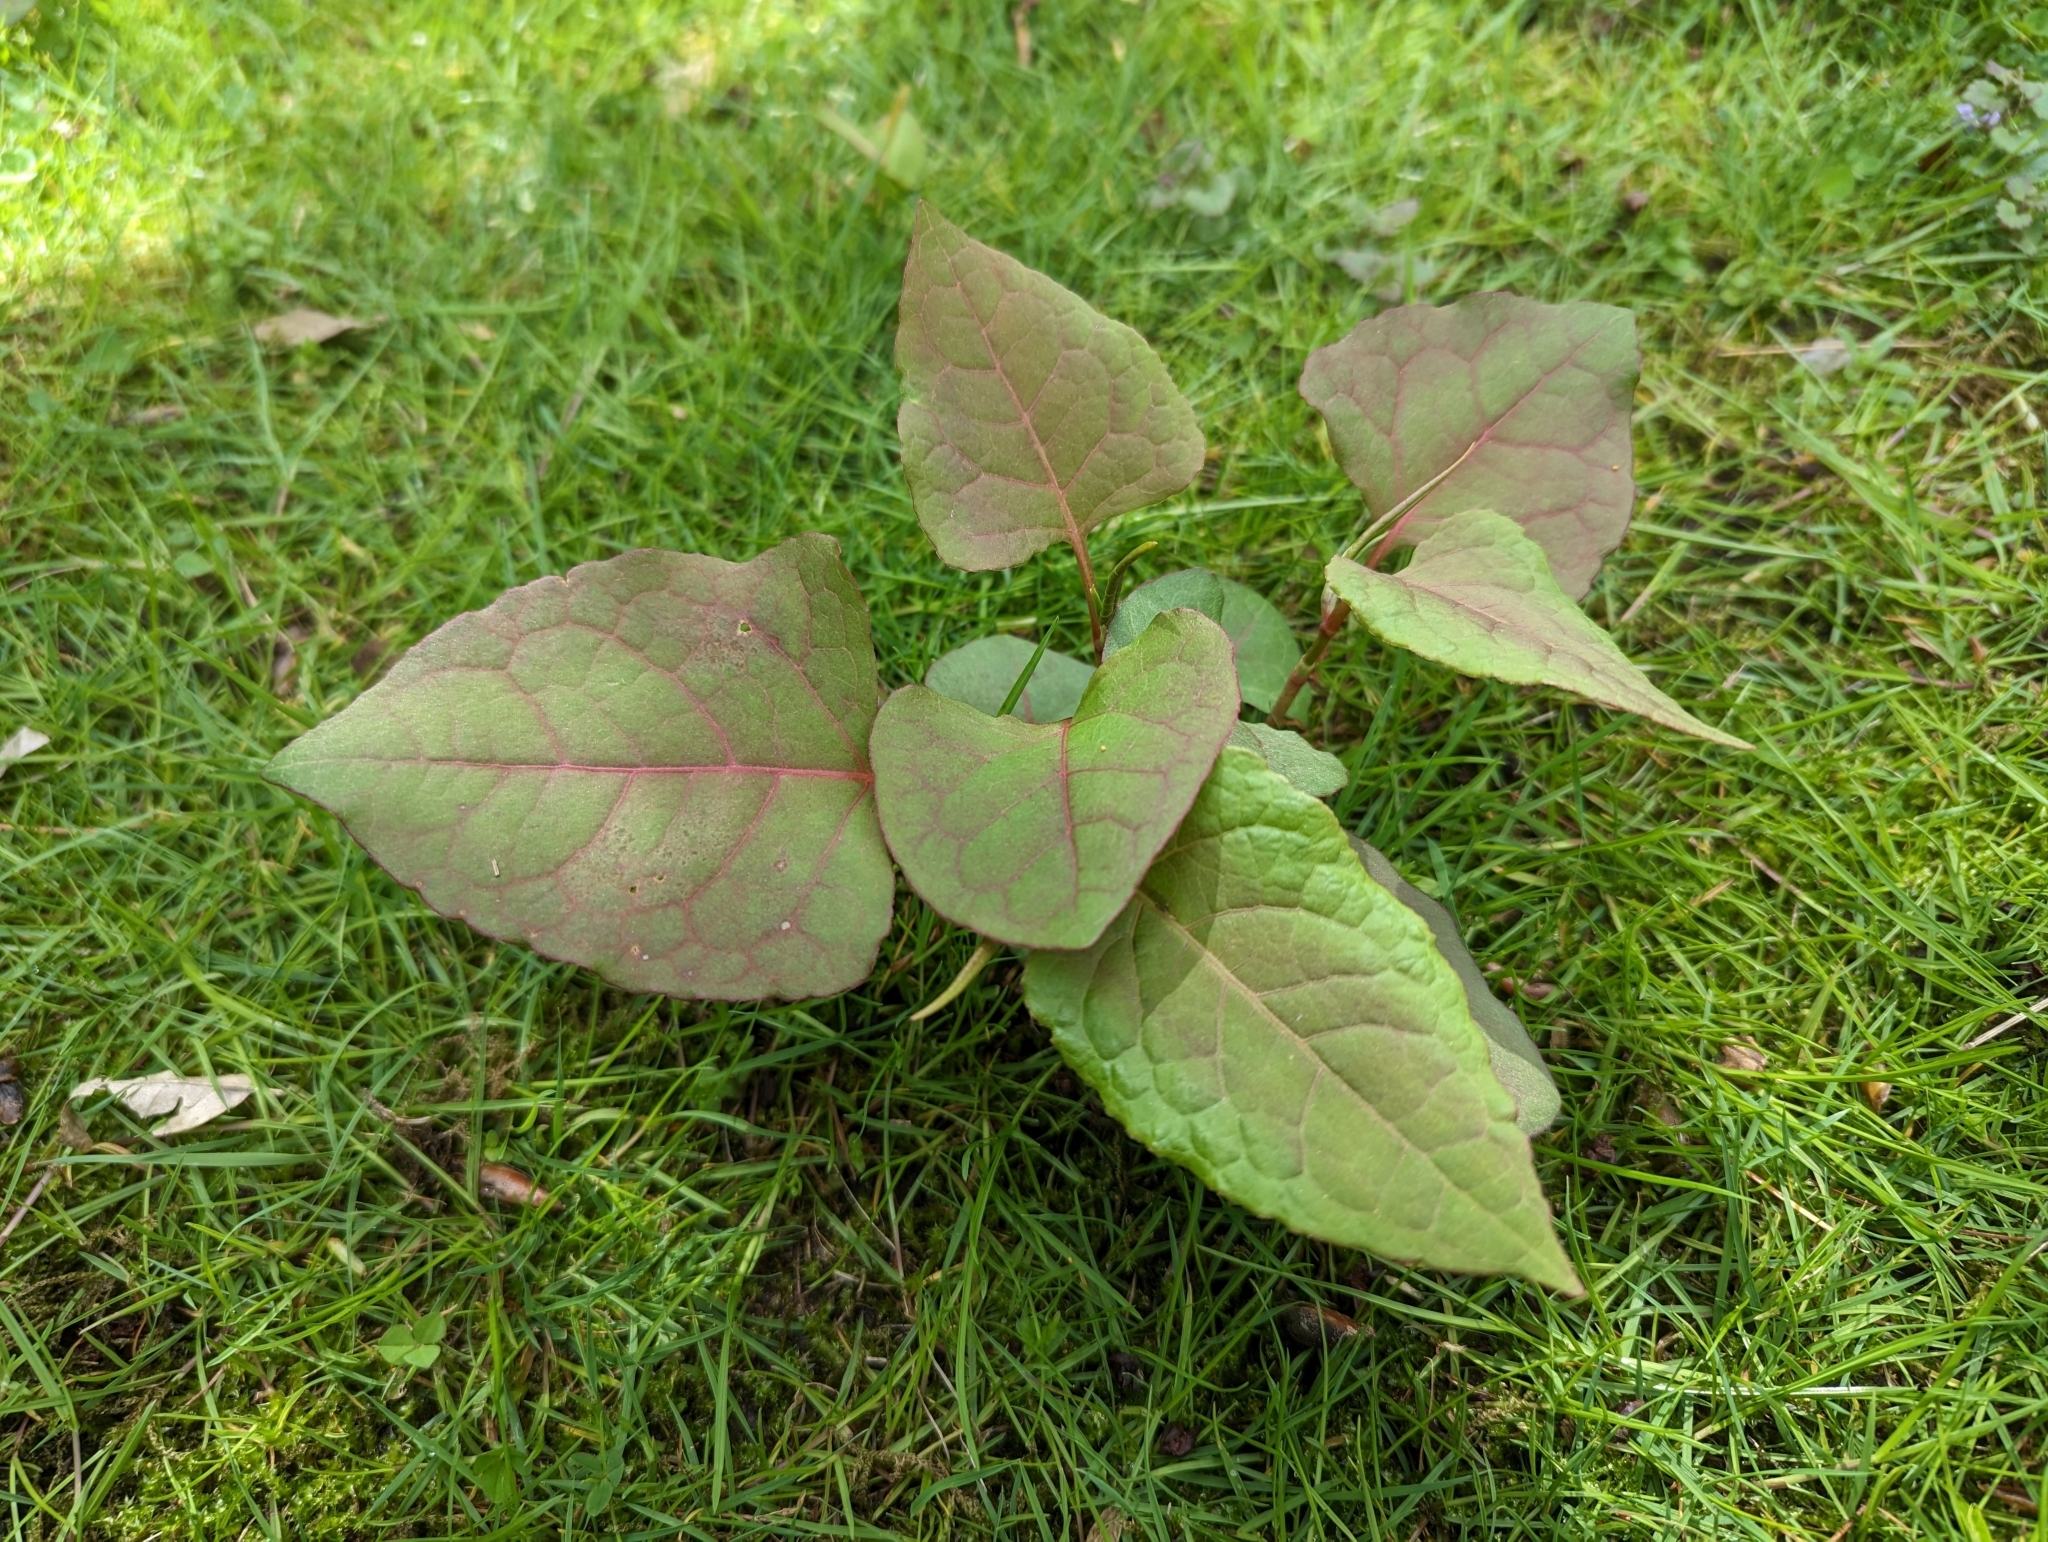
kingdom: Plantae
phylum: Tracheophyta
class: Magnoliopsida
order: Caryophyllales
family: Polygonaceae
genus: Reynoutria
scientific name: Reynoutria japonica
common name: Japanese knotweed
